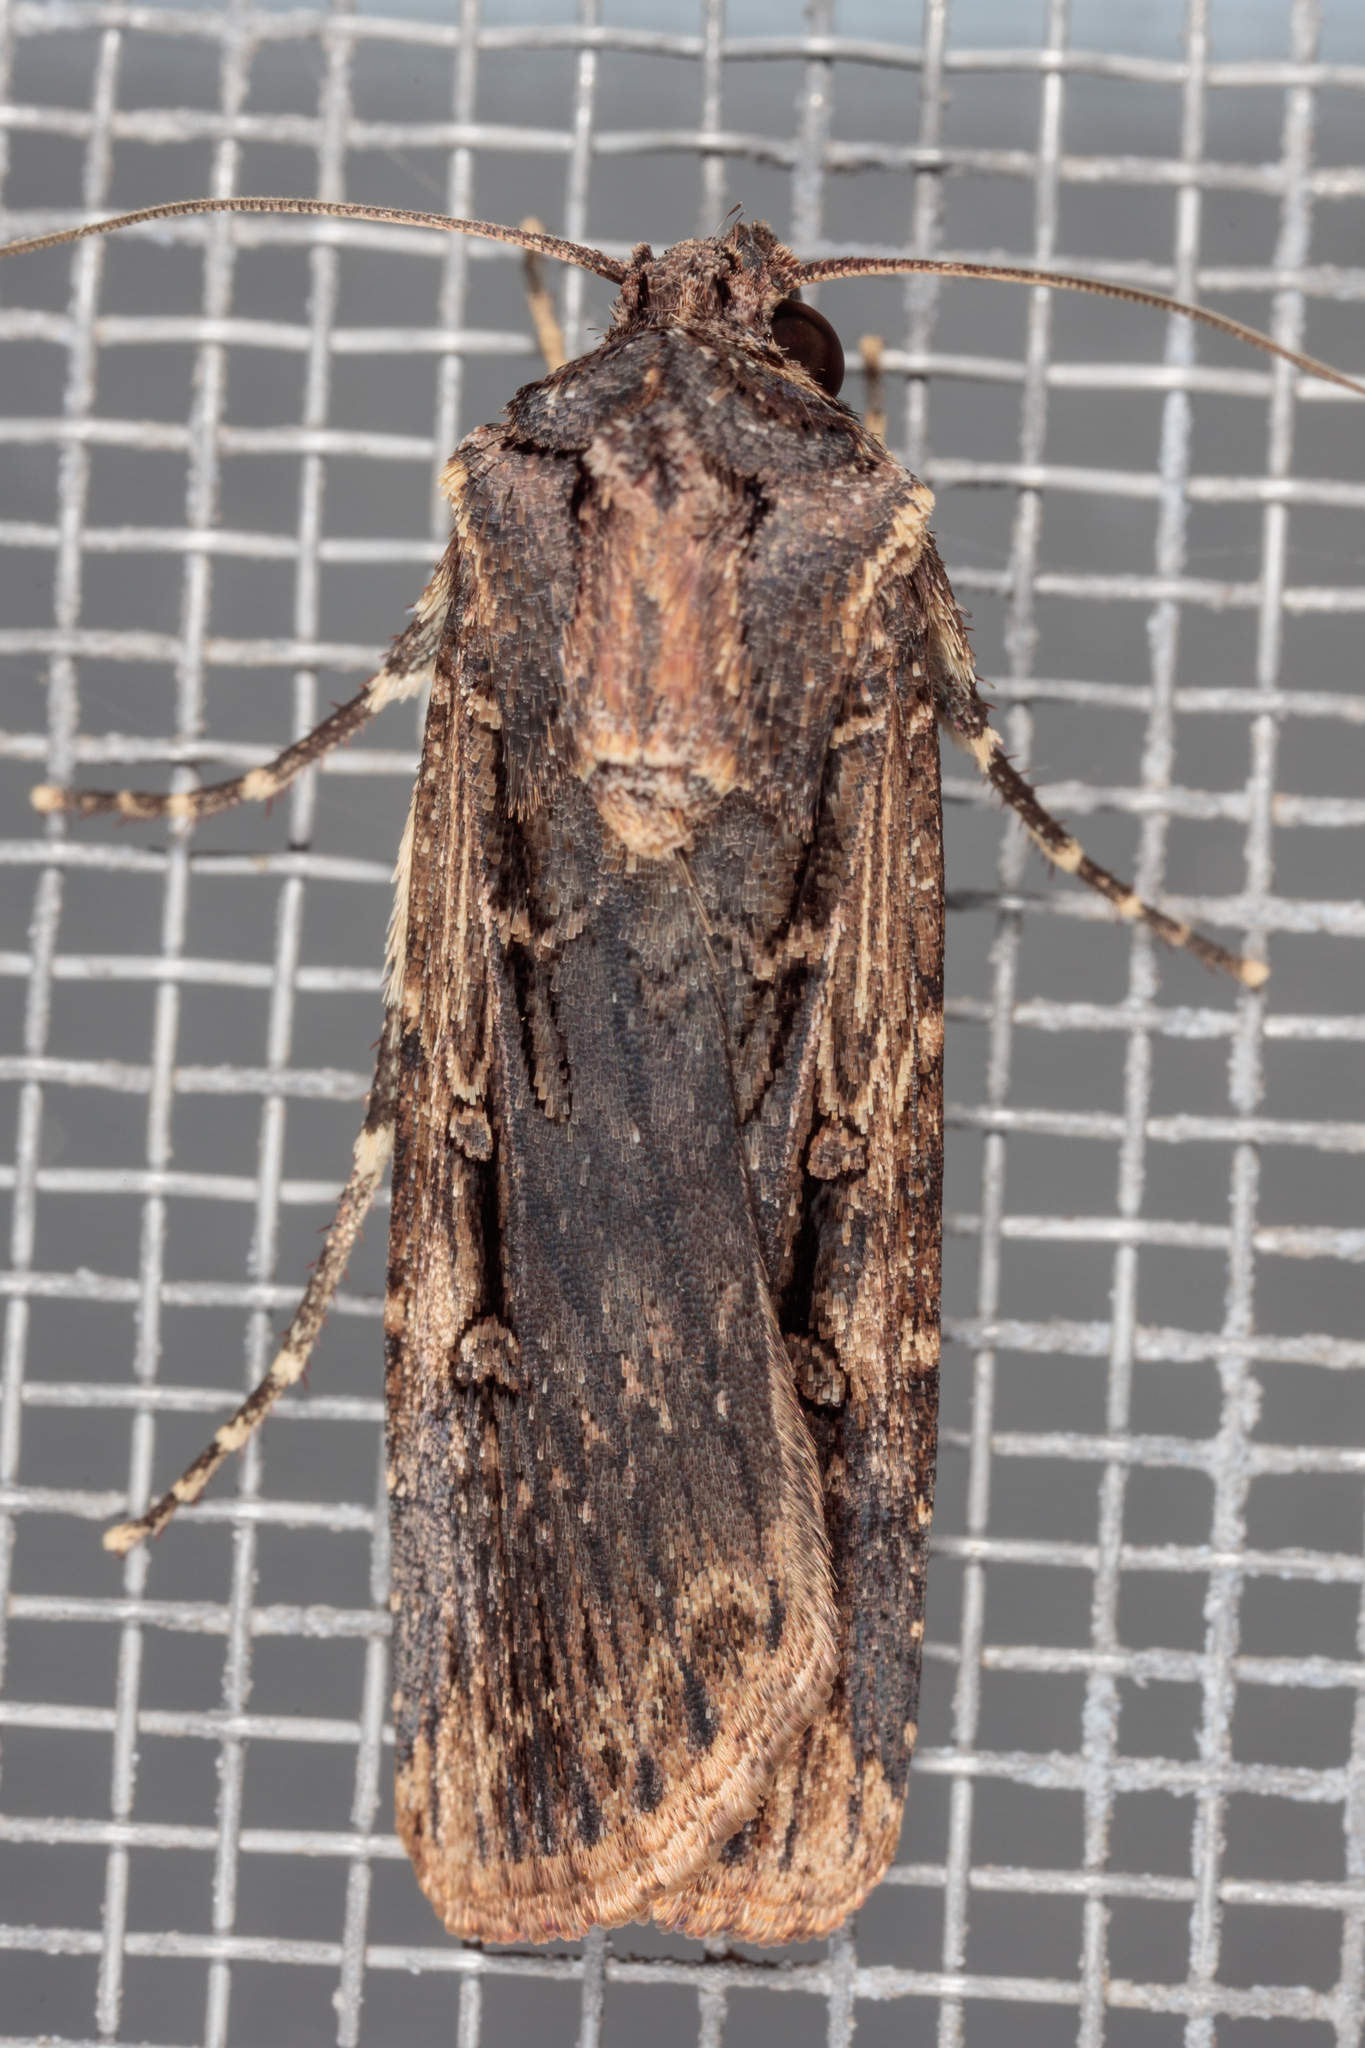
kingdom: Animalia
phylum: Arthropoda
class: Insecta
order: Lepidoptera
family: Noctuidae
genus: Feltia
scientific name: Feltia subterranea
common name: Granulate cutworm
